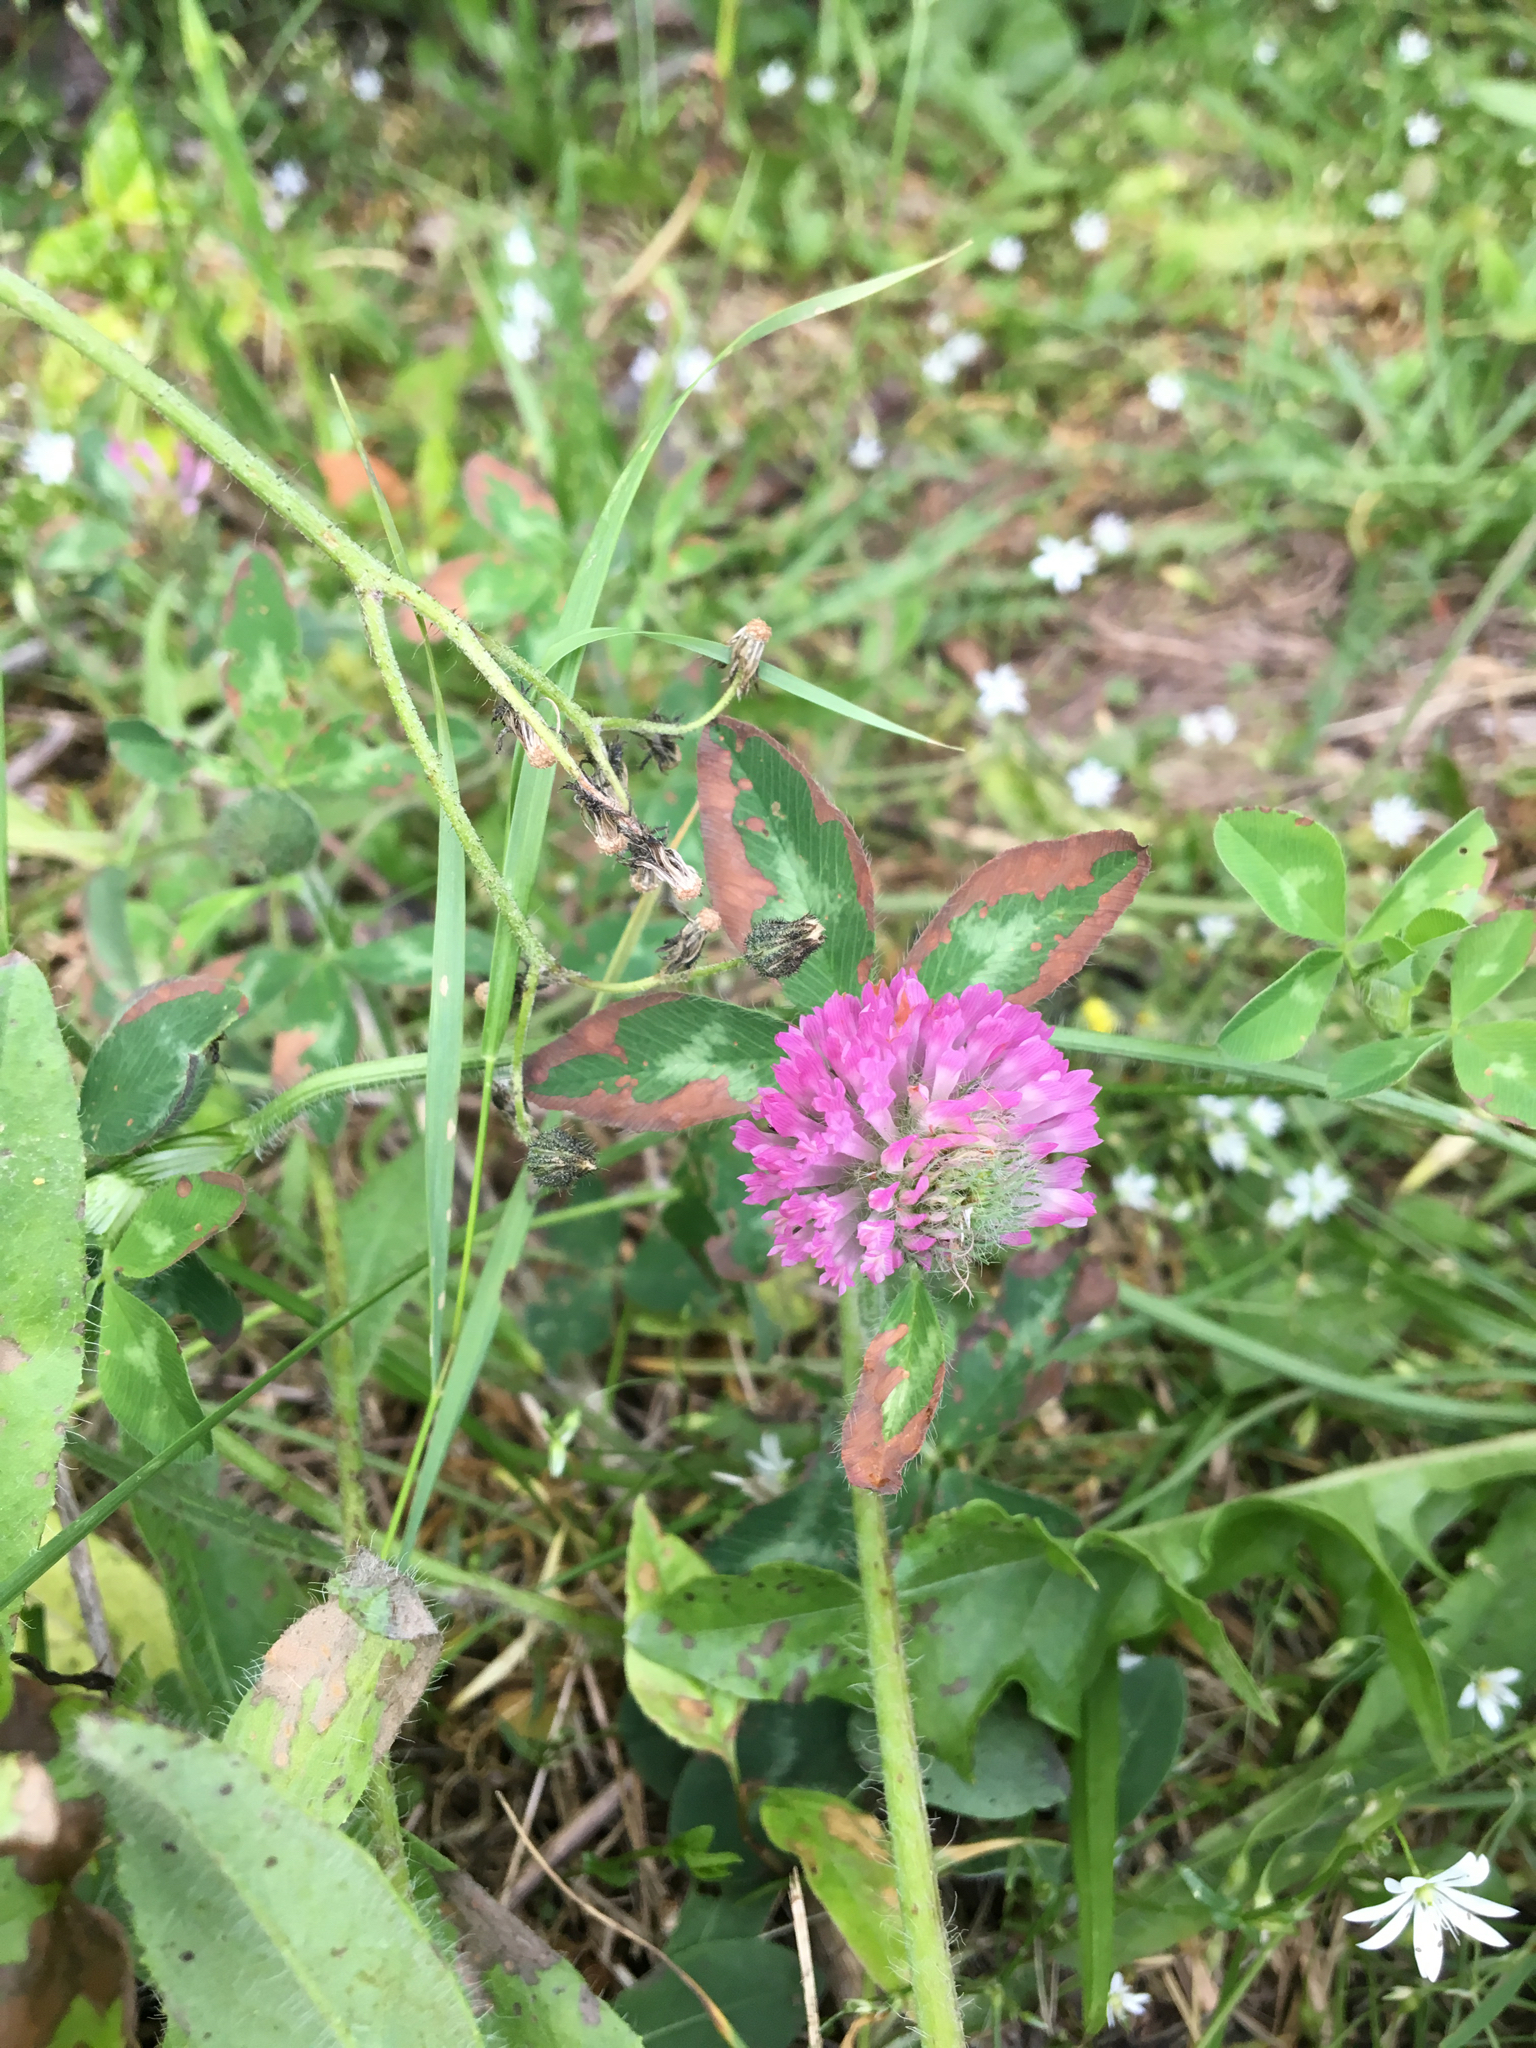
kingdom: Plantae
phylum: Tracheophyta
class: Magnoliopsida
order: Fabales
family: Fabaceae
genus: Trifolium
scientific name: Trifolium pratense
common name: Red clover
